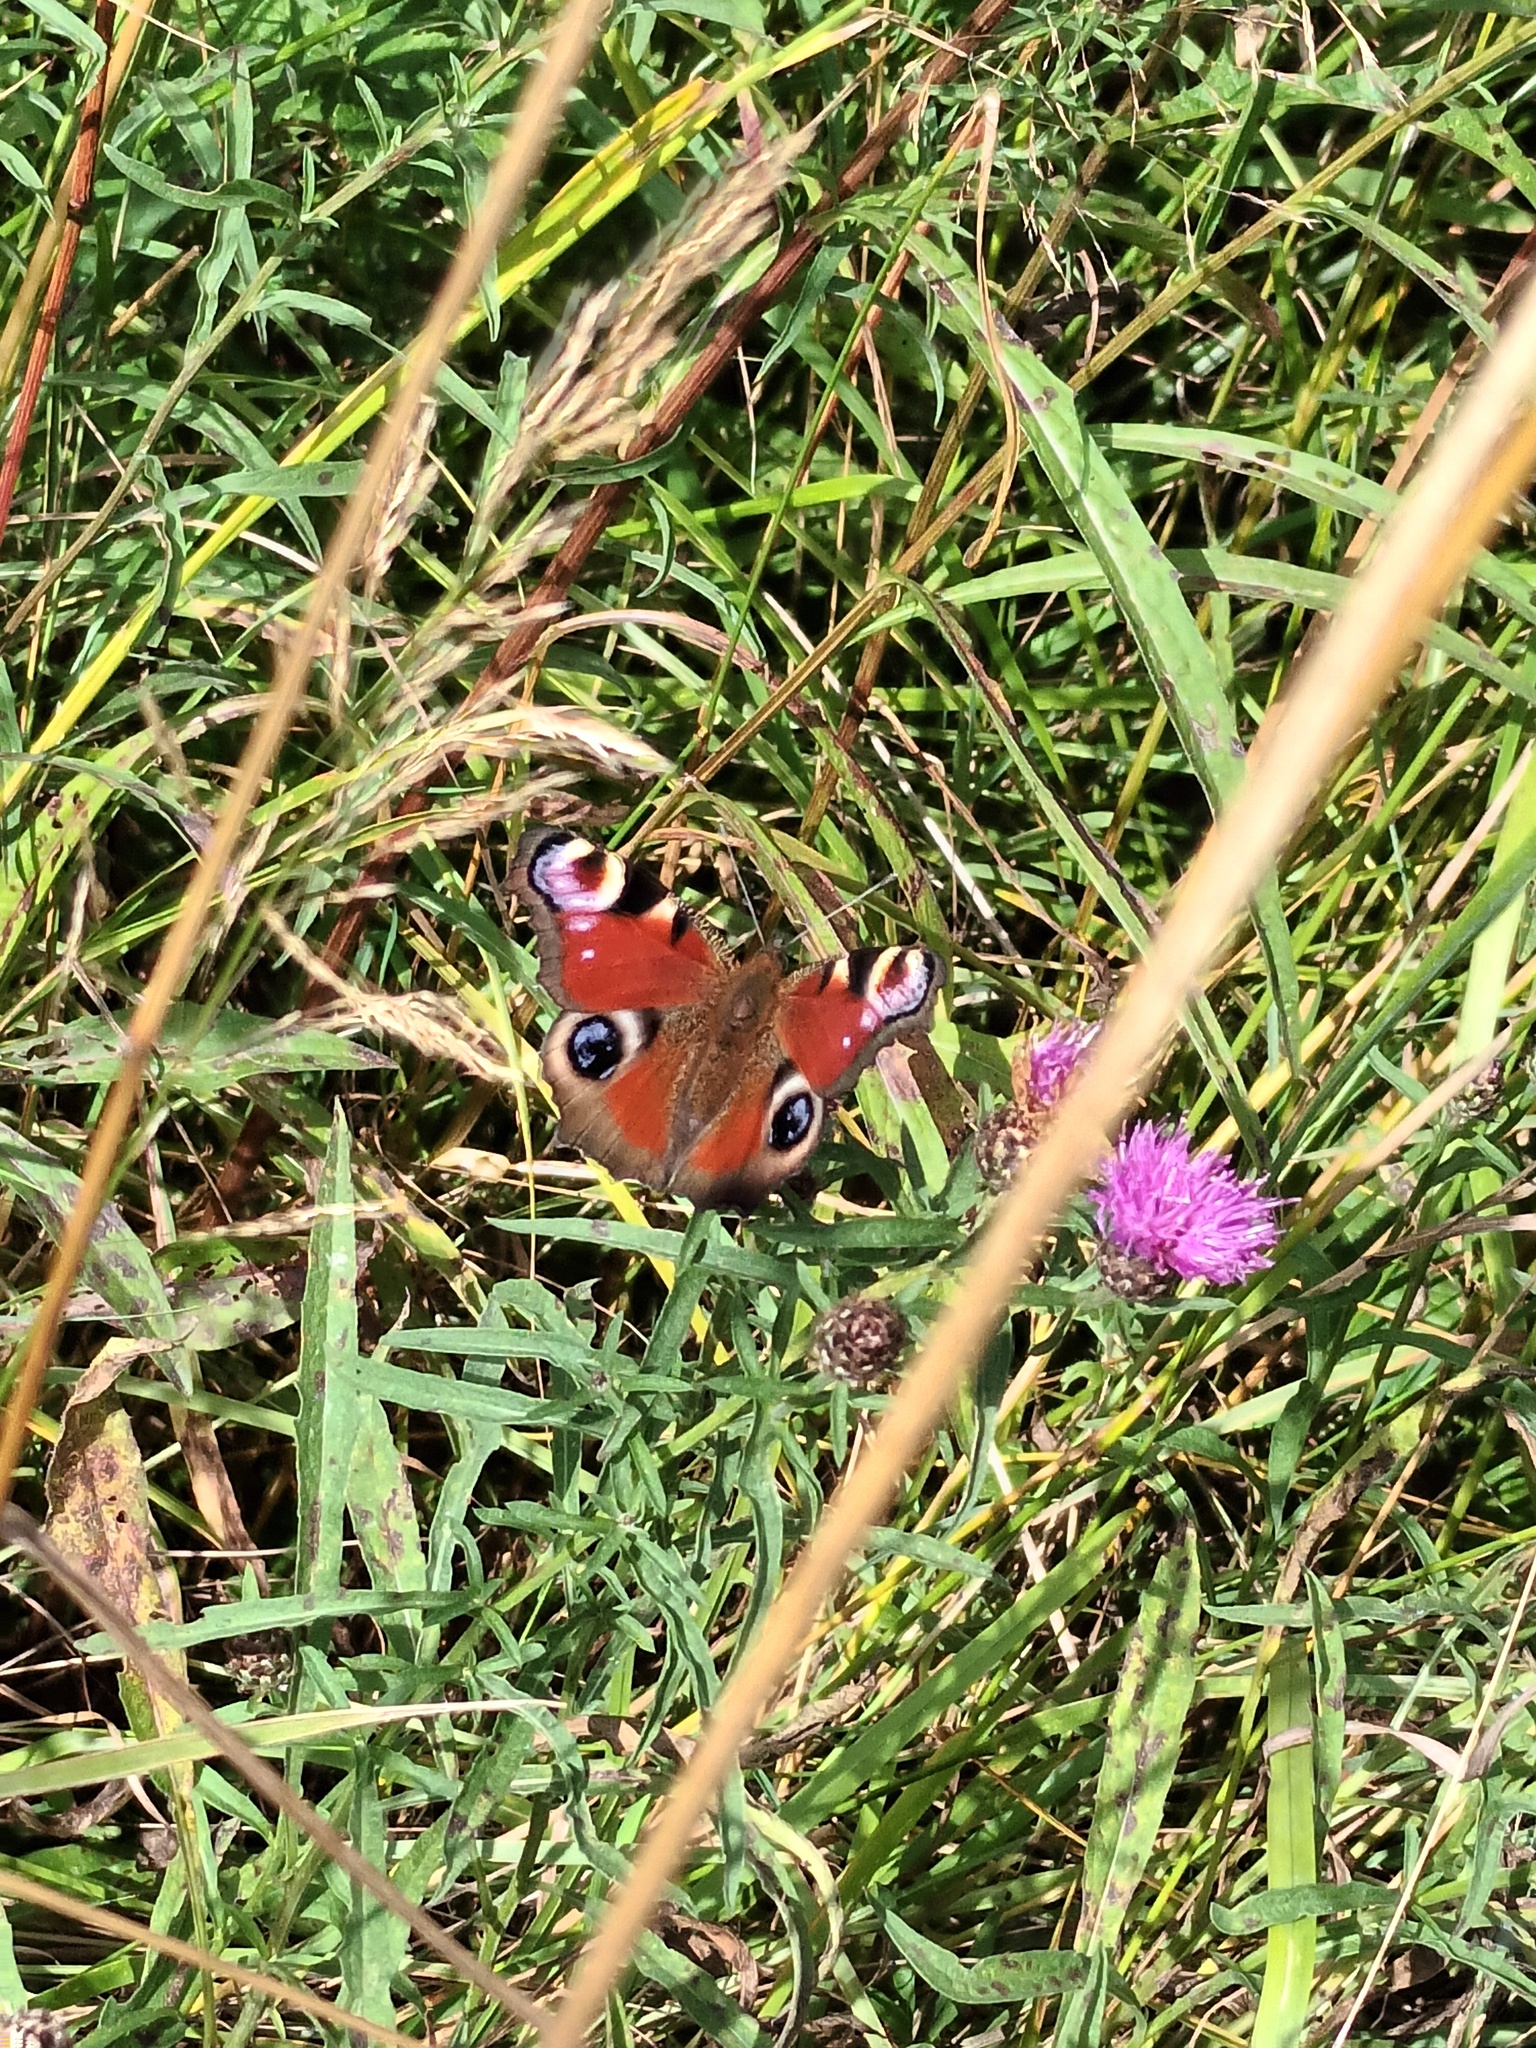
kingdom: Animalia
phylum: Arthropoda
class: Insecta
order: Lepidoptera
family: Nymphalidae
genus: Aglais
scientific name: Aglais io
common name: Peacock
